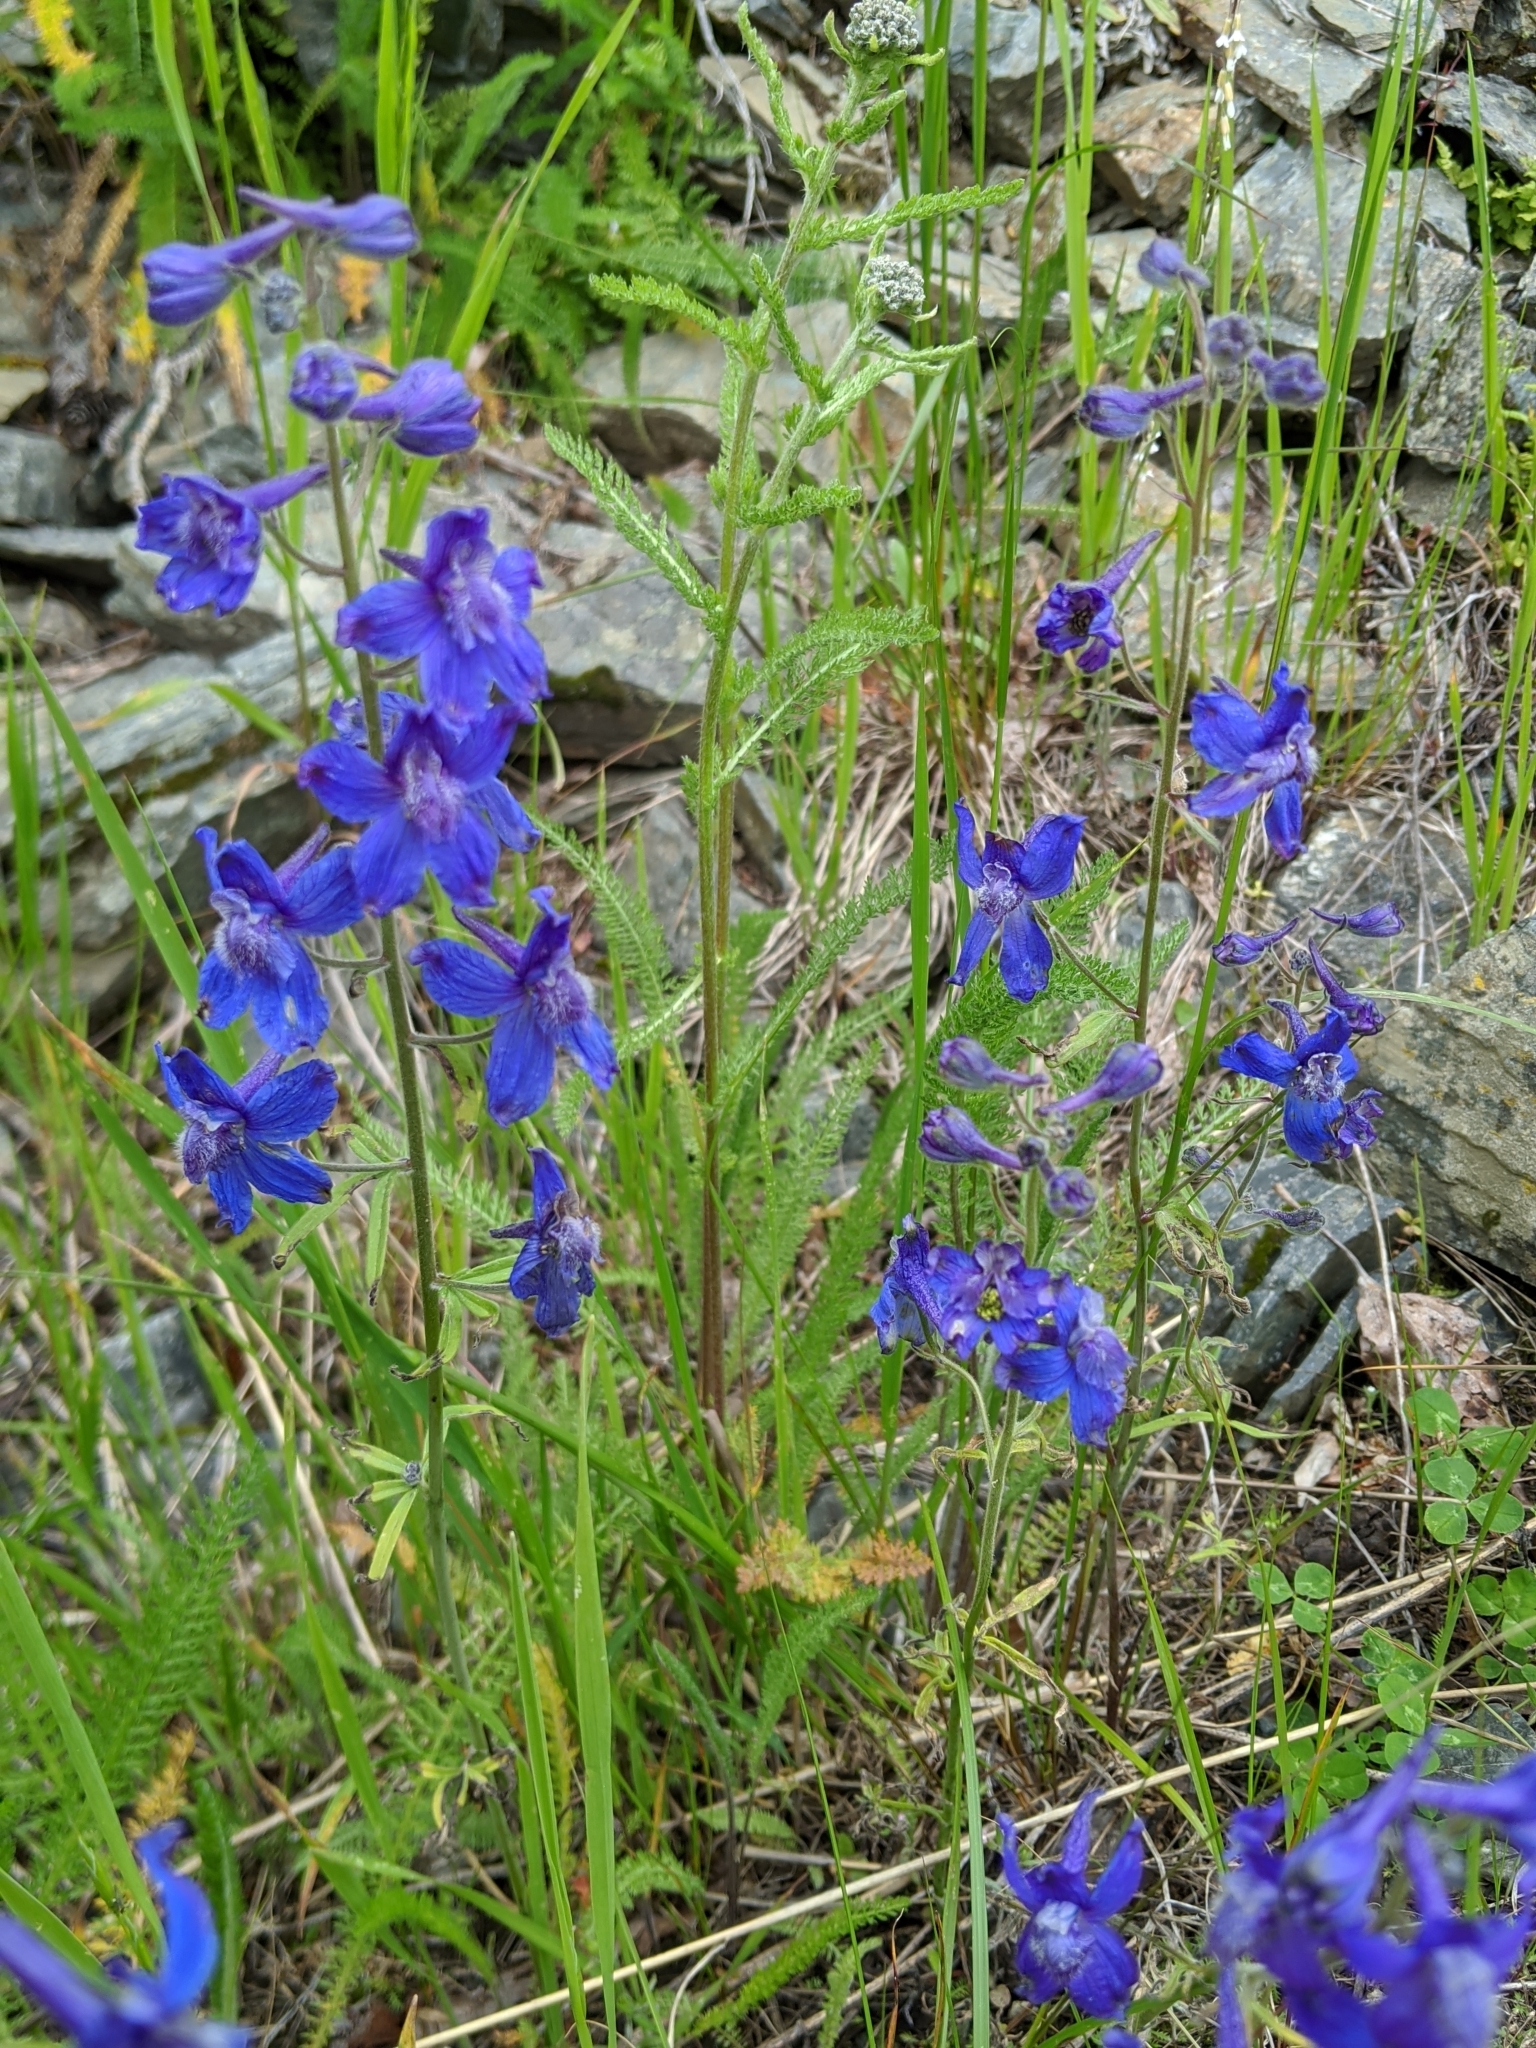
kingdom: Plantae
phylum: Tracheophyta
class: Magnoliopsida
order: Ranunculales
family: Ranunculaceae
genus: Delphinium
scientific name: Delphinium nuttallianum
